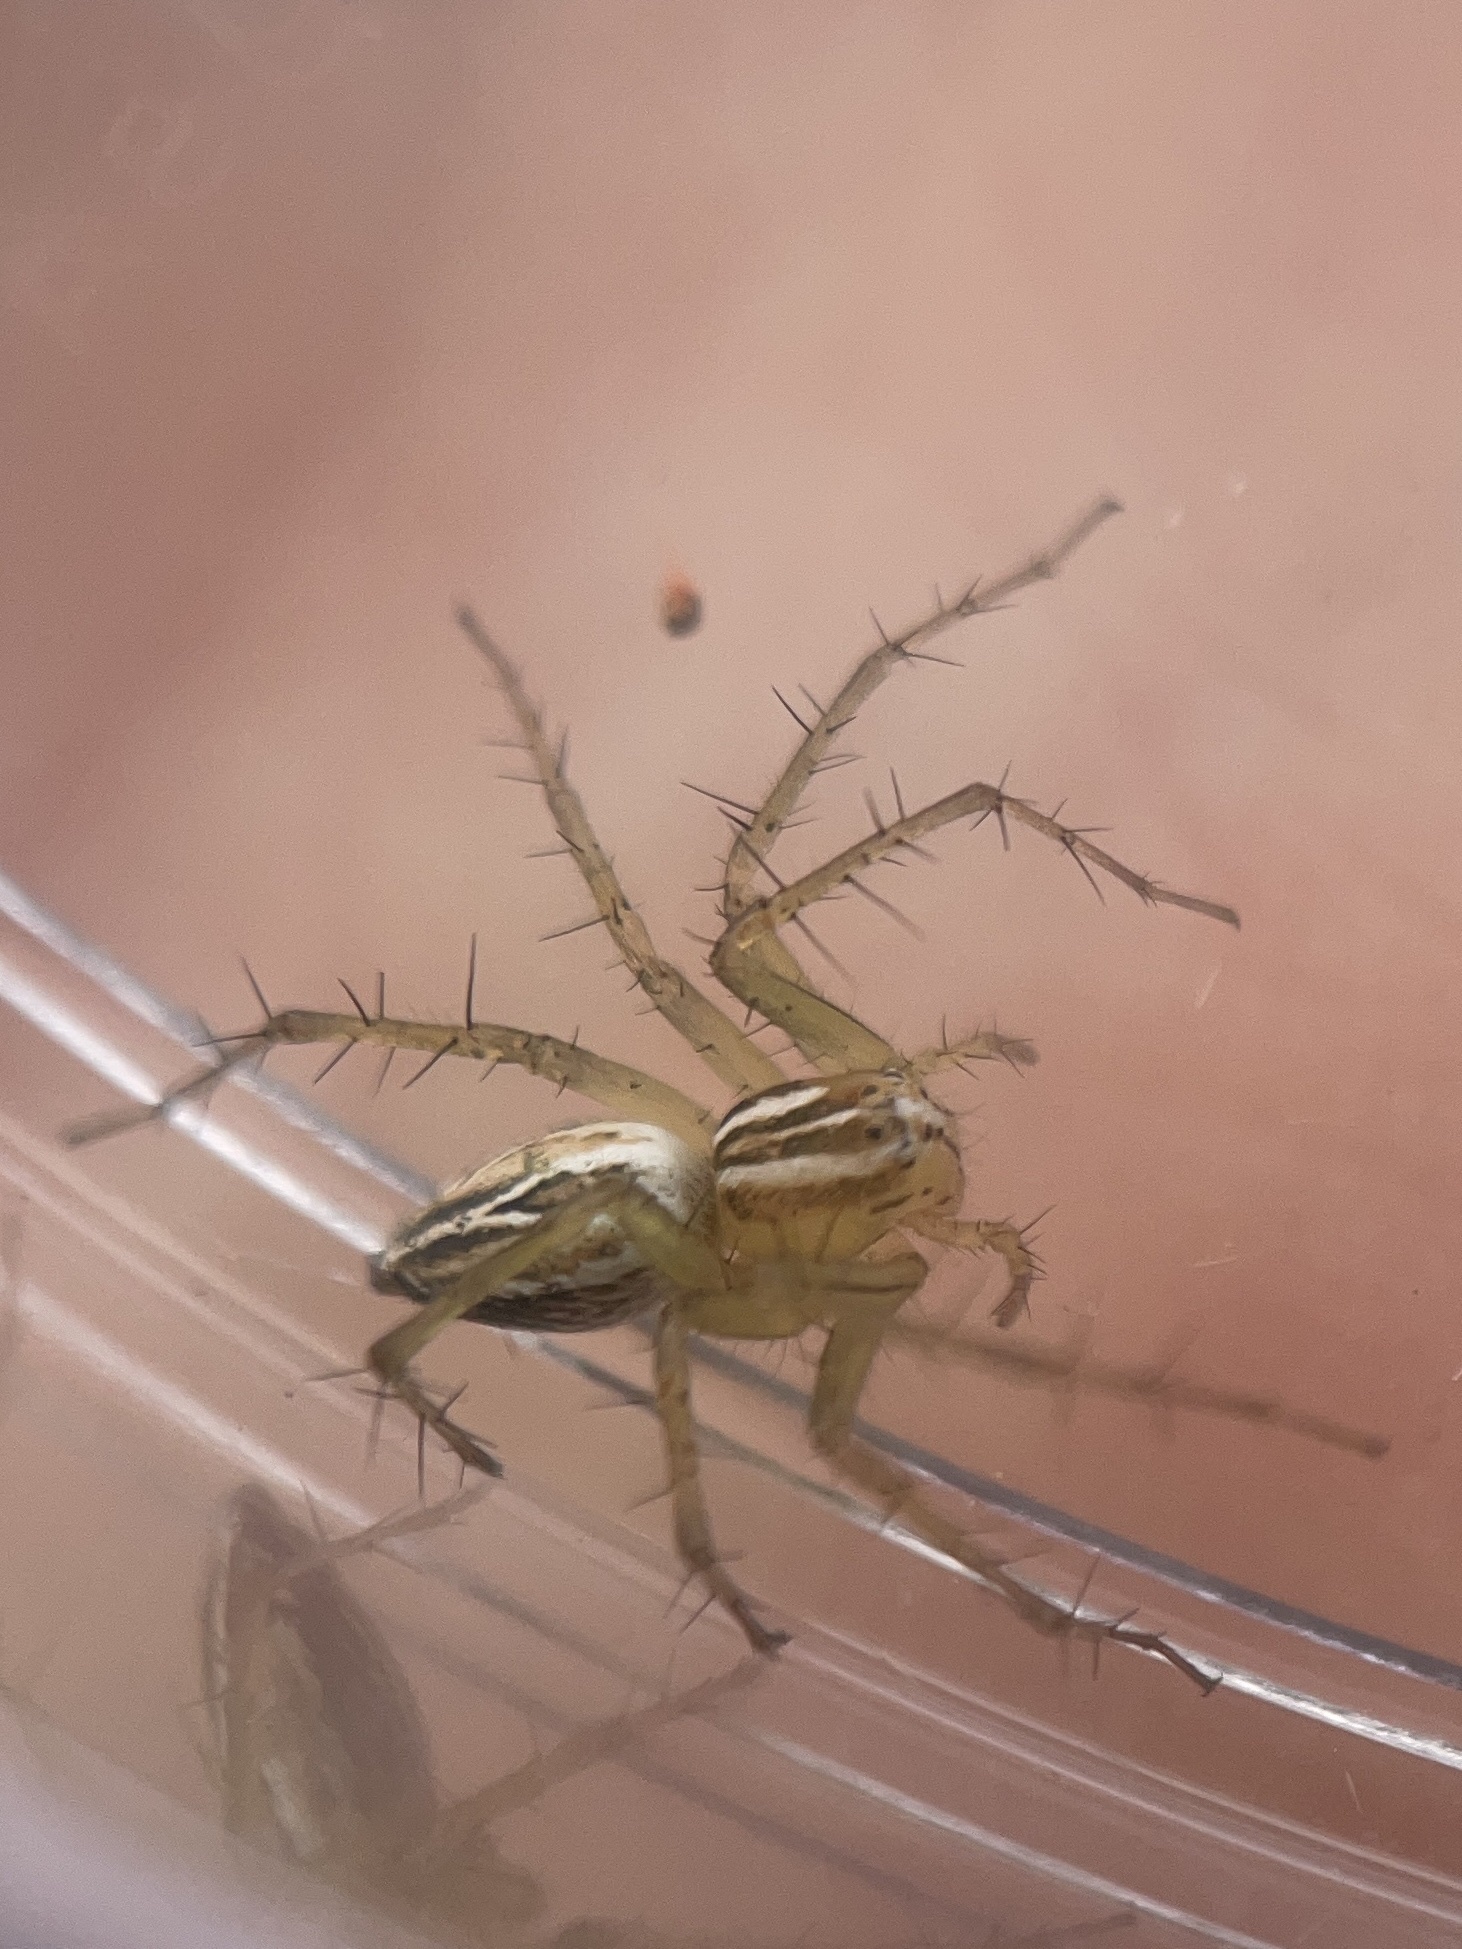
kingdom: Animalia
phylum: Arthropoda
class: Arachnida
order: Araneae
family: Oxyopidae
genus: Oxyopes
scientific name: Oxyopes salticus
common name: Lynx spiders
